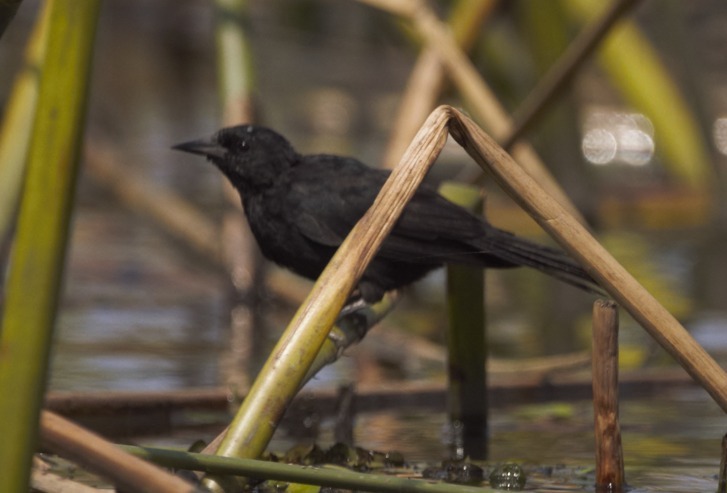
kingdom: Animalia
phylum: Chordata
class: Aves
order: Passeriformes
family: Icteridae
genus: Agelasticus
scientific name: Agelasticus cyanopus
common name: Unicolored blackbird
